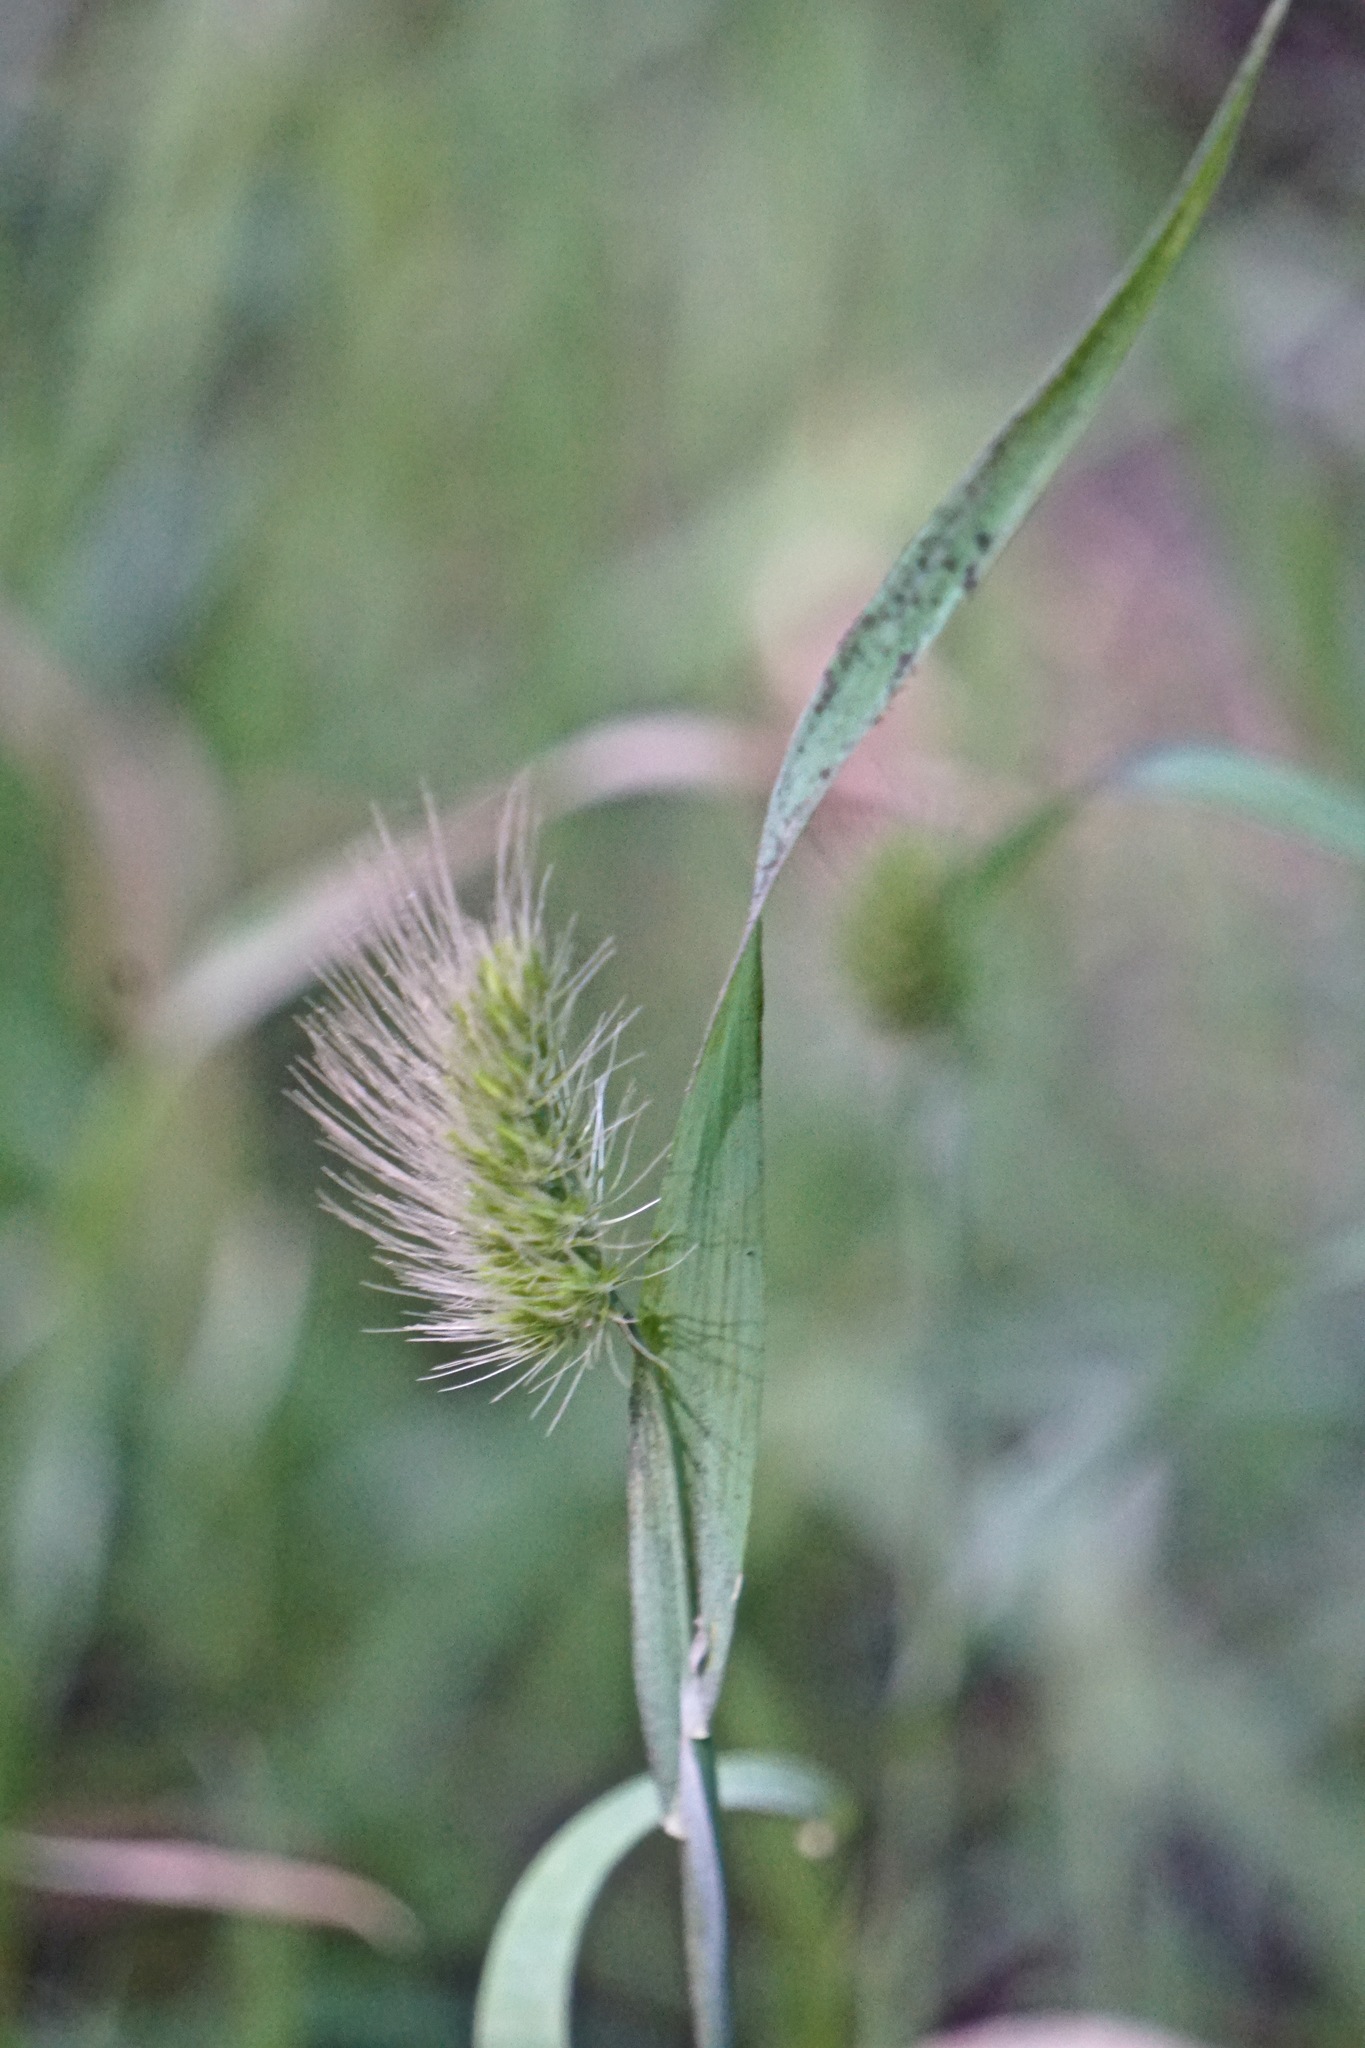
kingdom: Plantae
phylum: Tracheophyta
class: Liliopsida
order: Poales
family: Poaceae
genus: Cynosurus
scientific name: Cynosurus echinatus
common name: Rough dog's-tail
